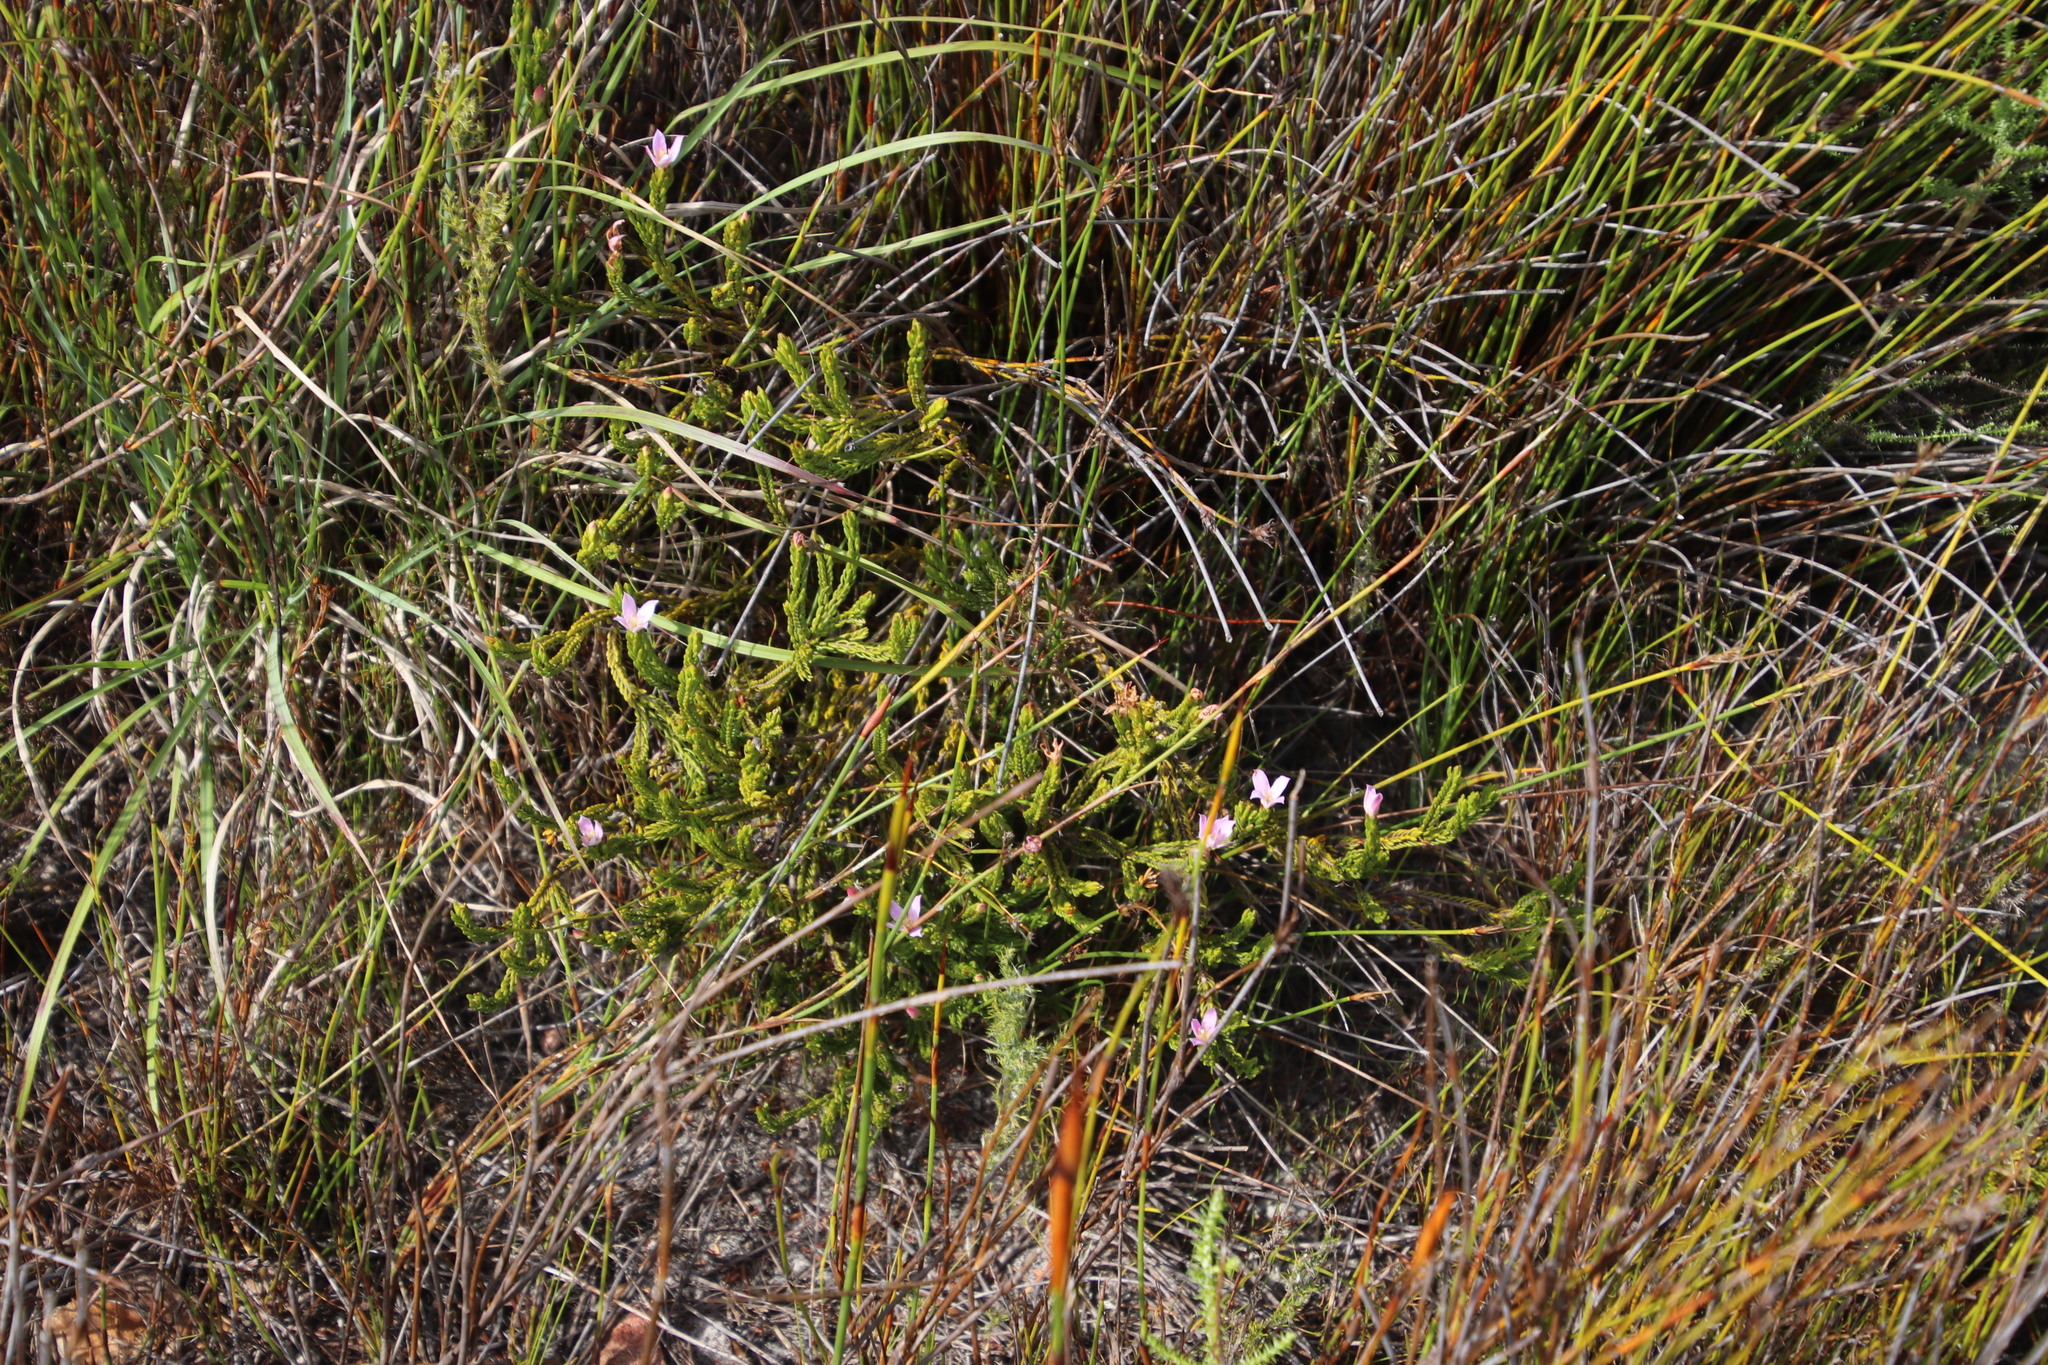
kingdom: Plantae
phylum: Tracheophyta
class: Magnoliopsida
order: Malvales
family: Thymelaeaceae
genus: Lachnaea
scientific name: Lachnaea grandiflora
